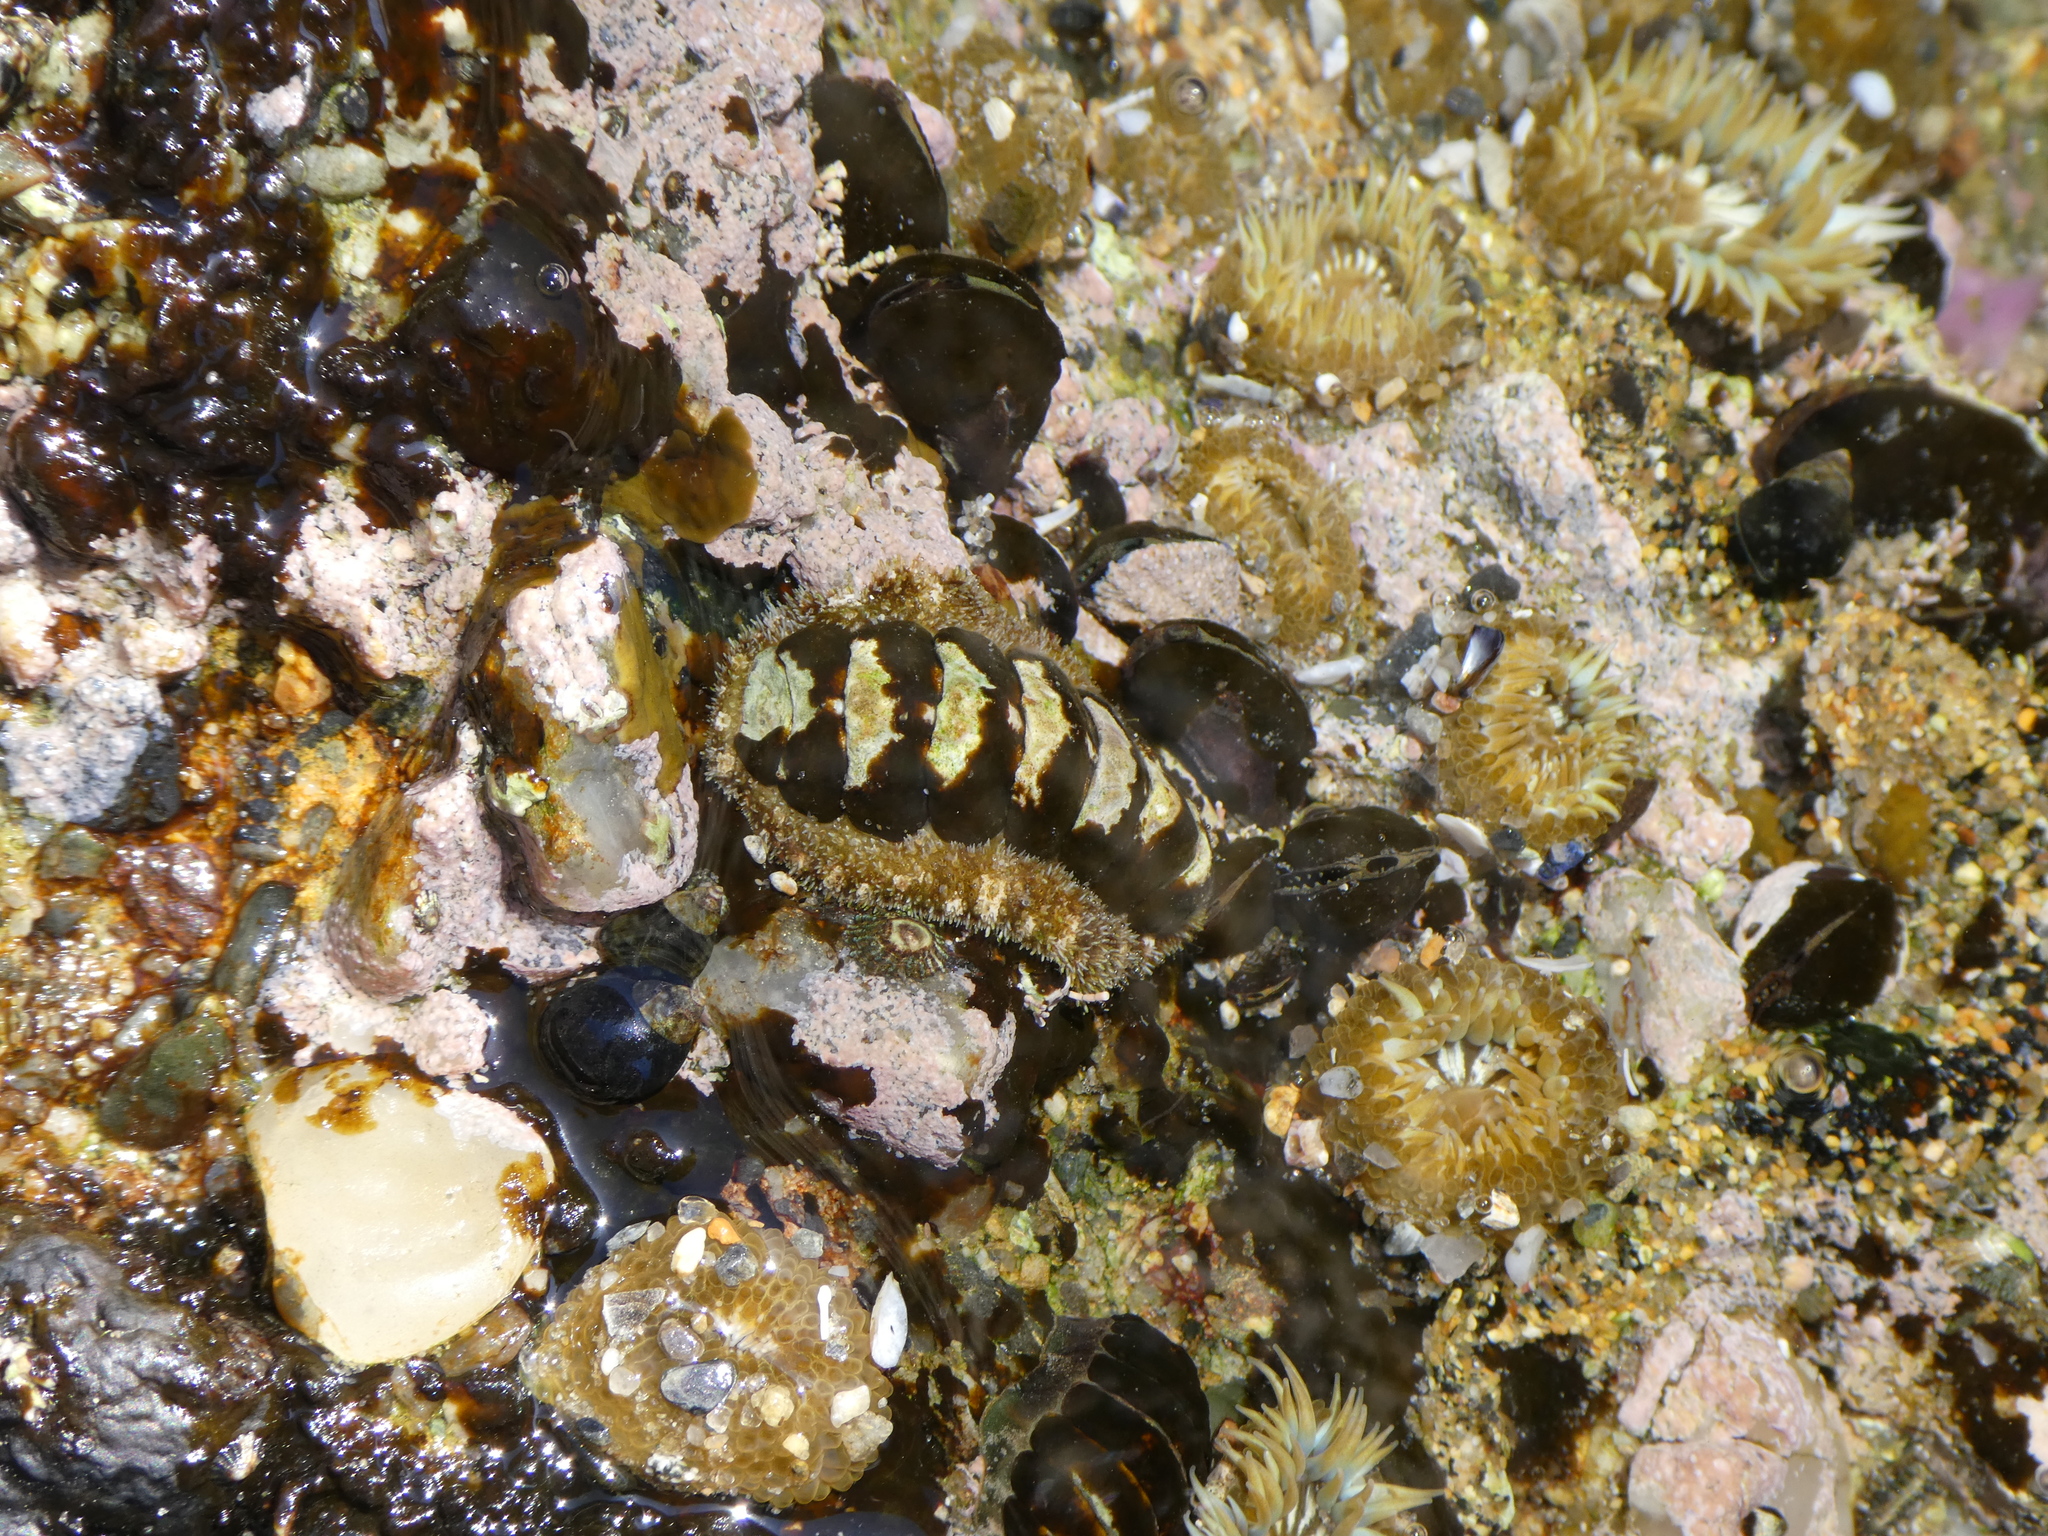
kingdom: Animalia
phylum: Mollusca
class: Polyplacophora
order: Chitonida
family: Tonicellidae
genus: Nuttallina
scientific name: Nuttallina californica
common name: California nuttall chiton
